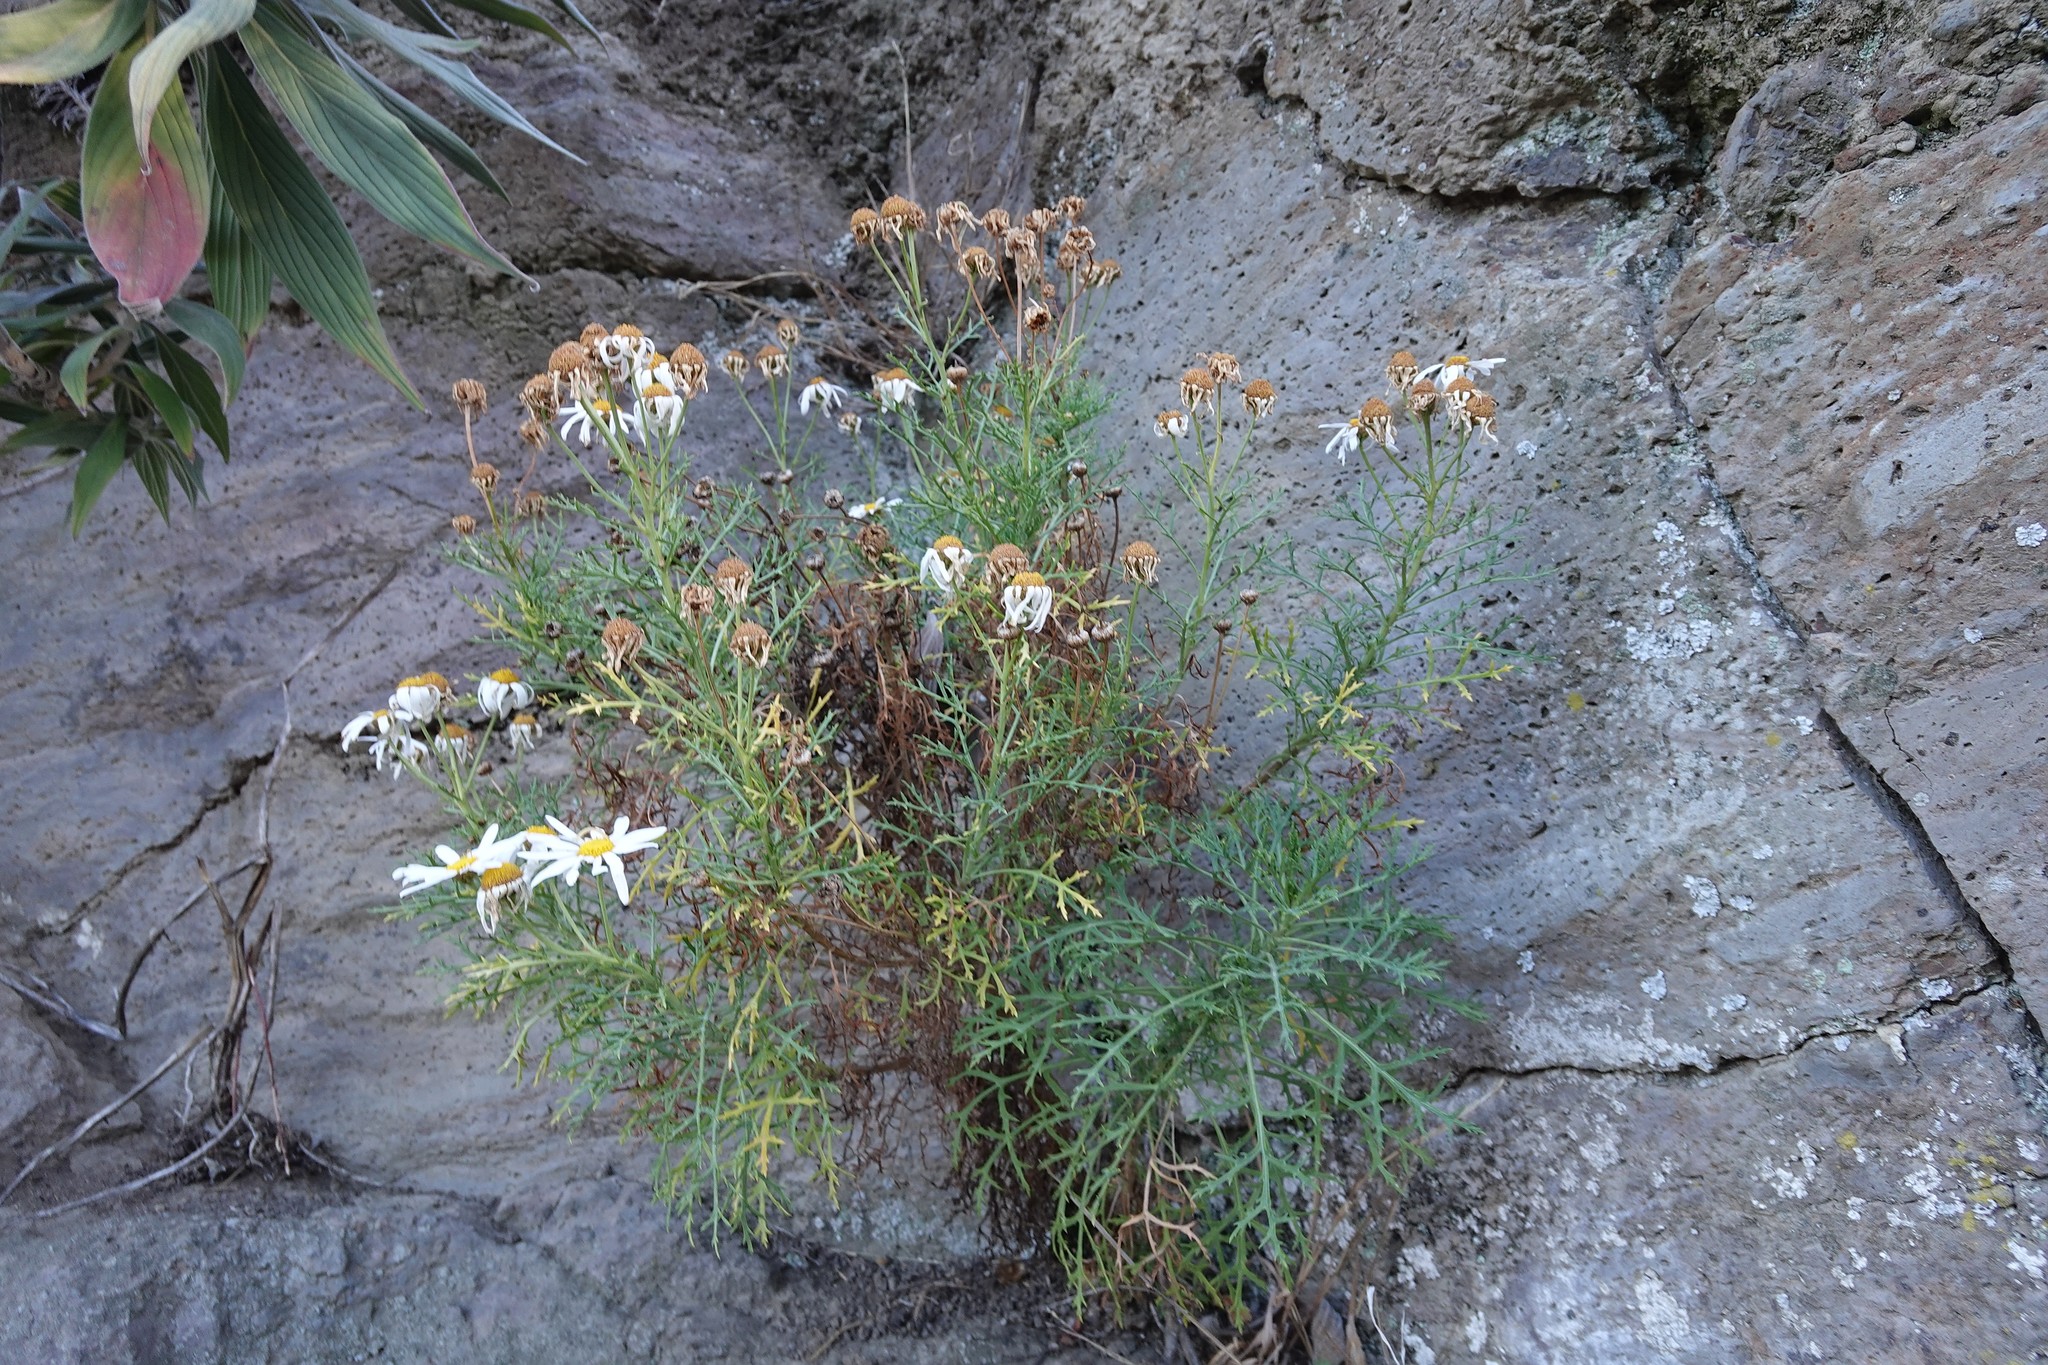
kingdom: Plantae
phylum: Tracheophyta
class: Magnoliopsida
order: Asterales
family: Asteraceae
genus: Argyranthemum
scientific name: Argyranthemum frutescens
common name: Paris daisy
